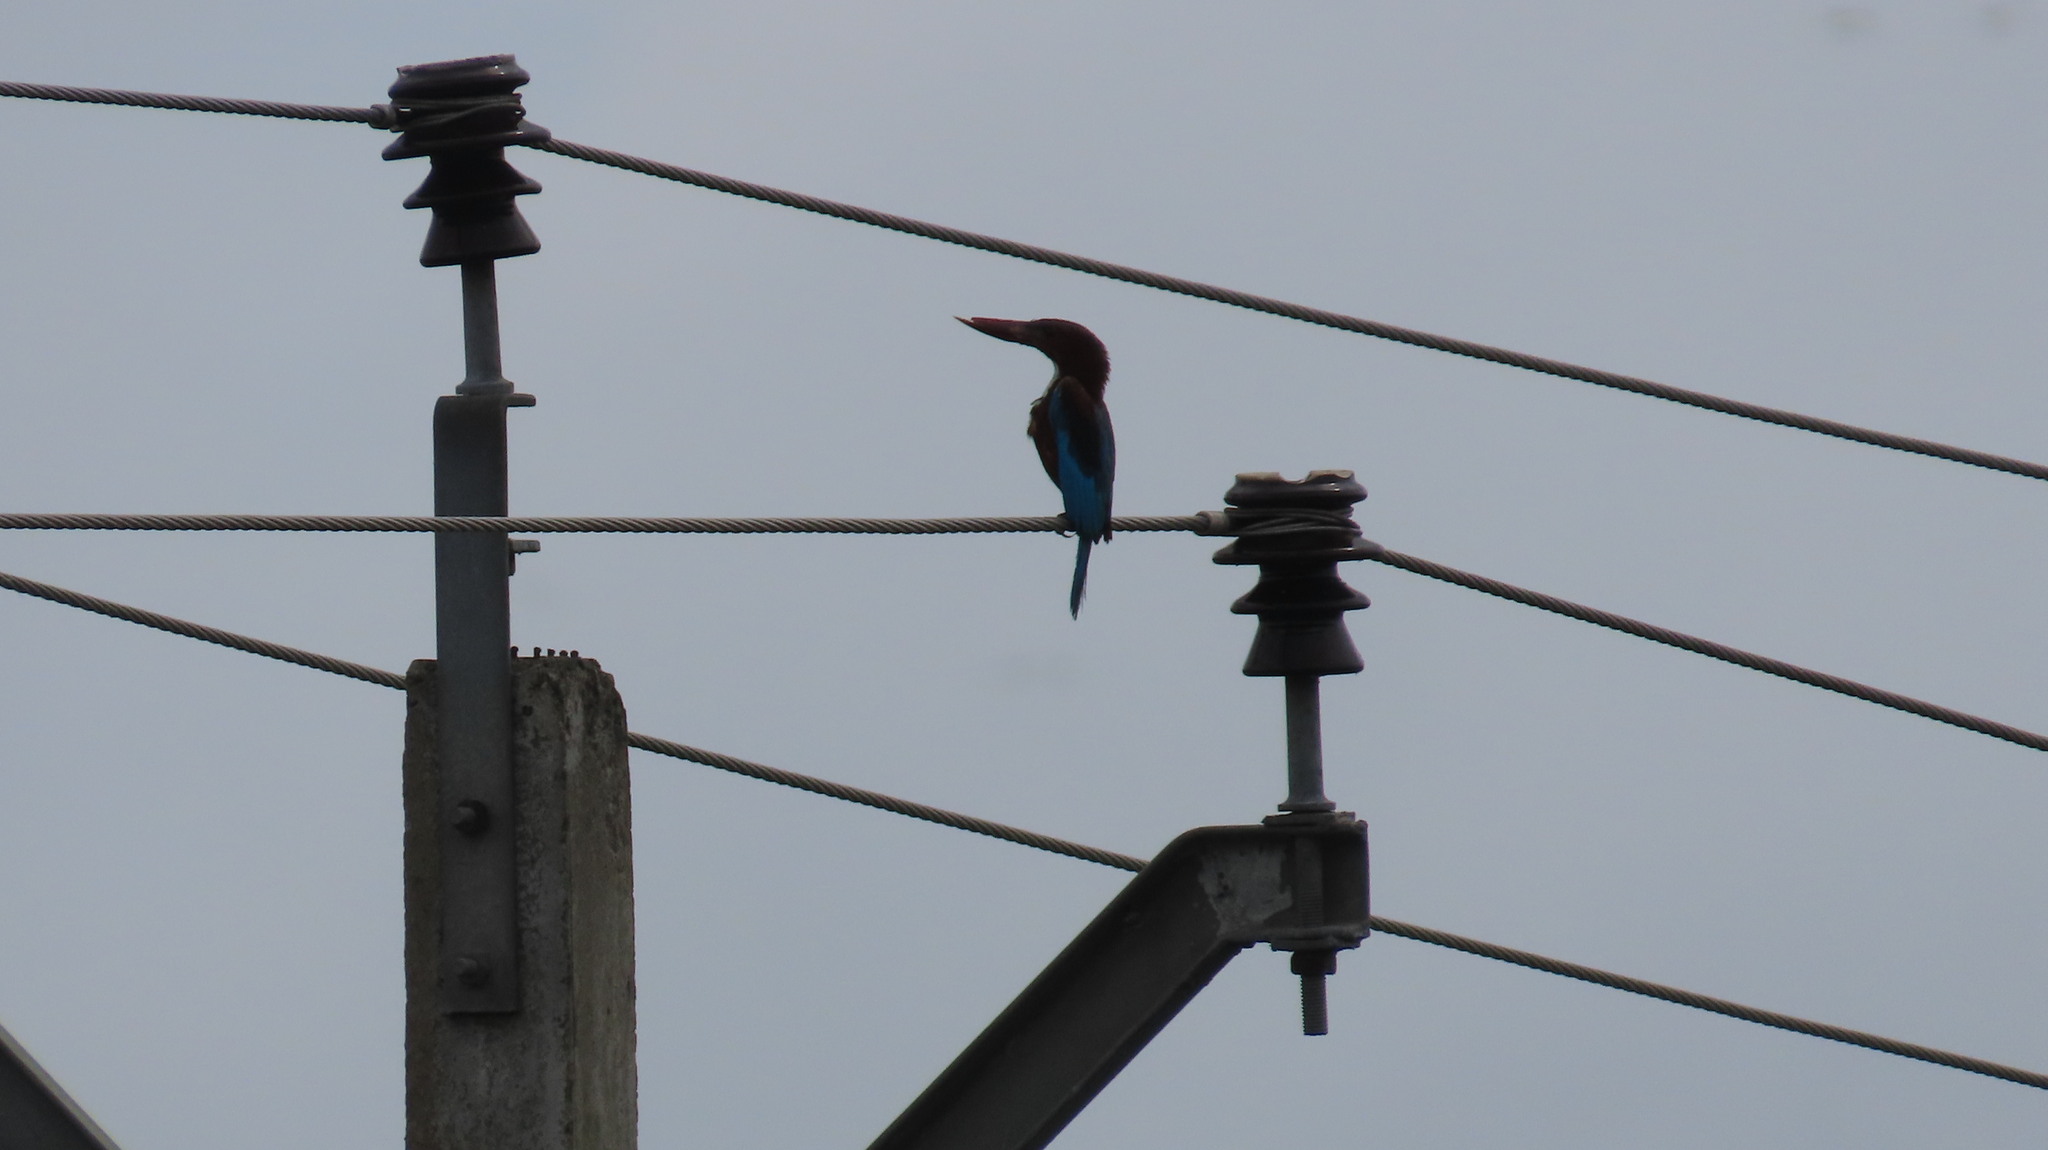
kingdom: Animalia
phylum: Chordata
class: Aves
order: Coraciiformes
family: Alcedinidae
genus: Halcyon
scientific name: Halcyon smyrnensis
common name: White-throated kingfisher
